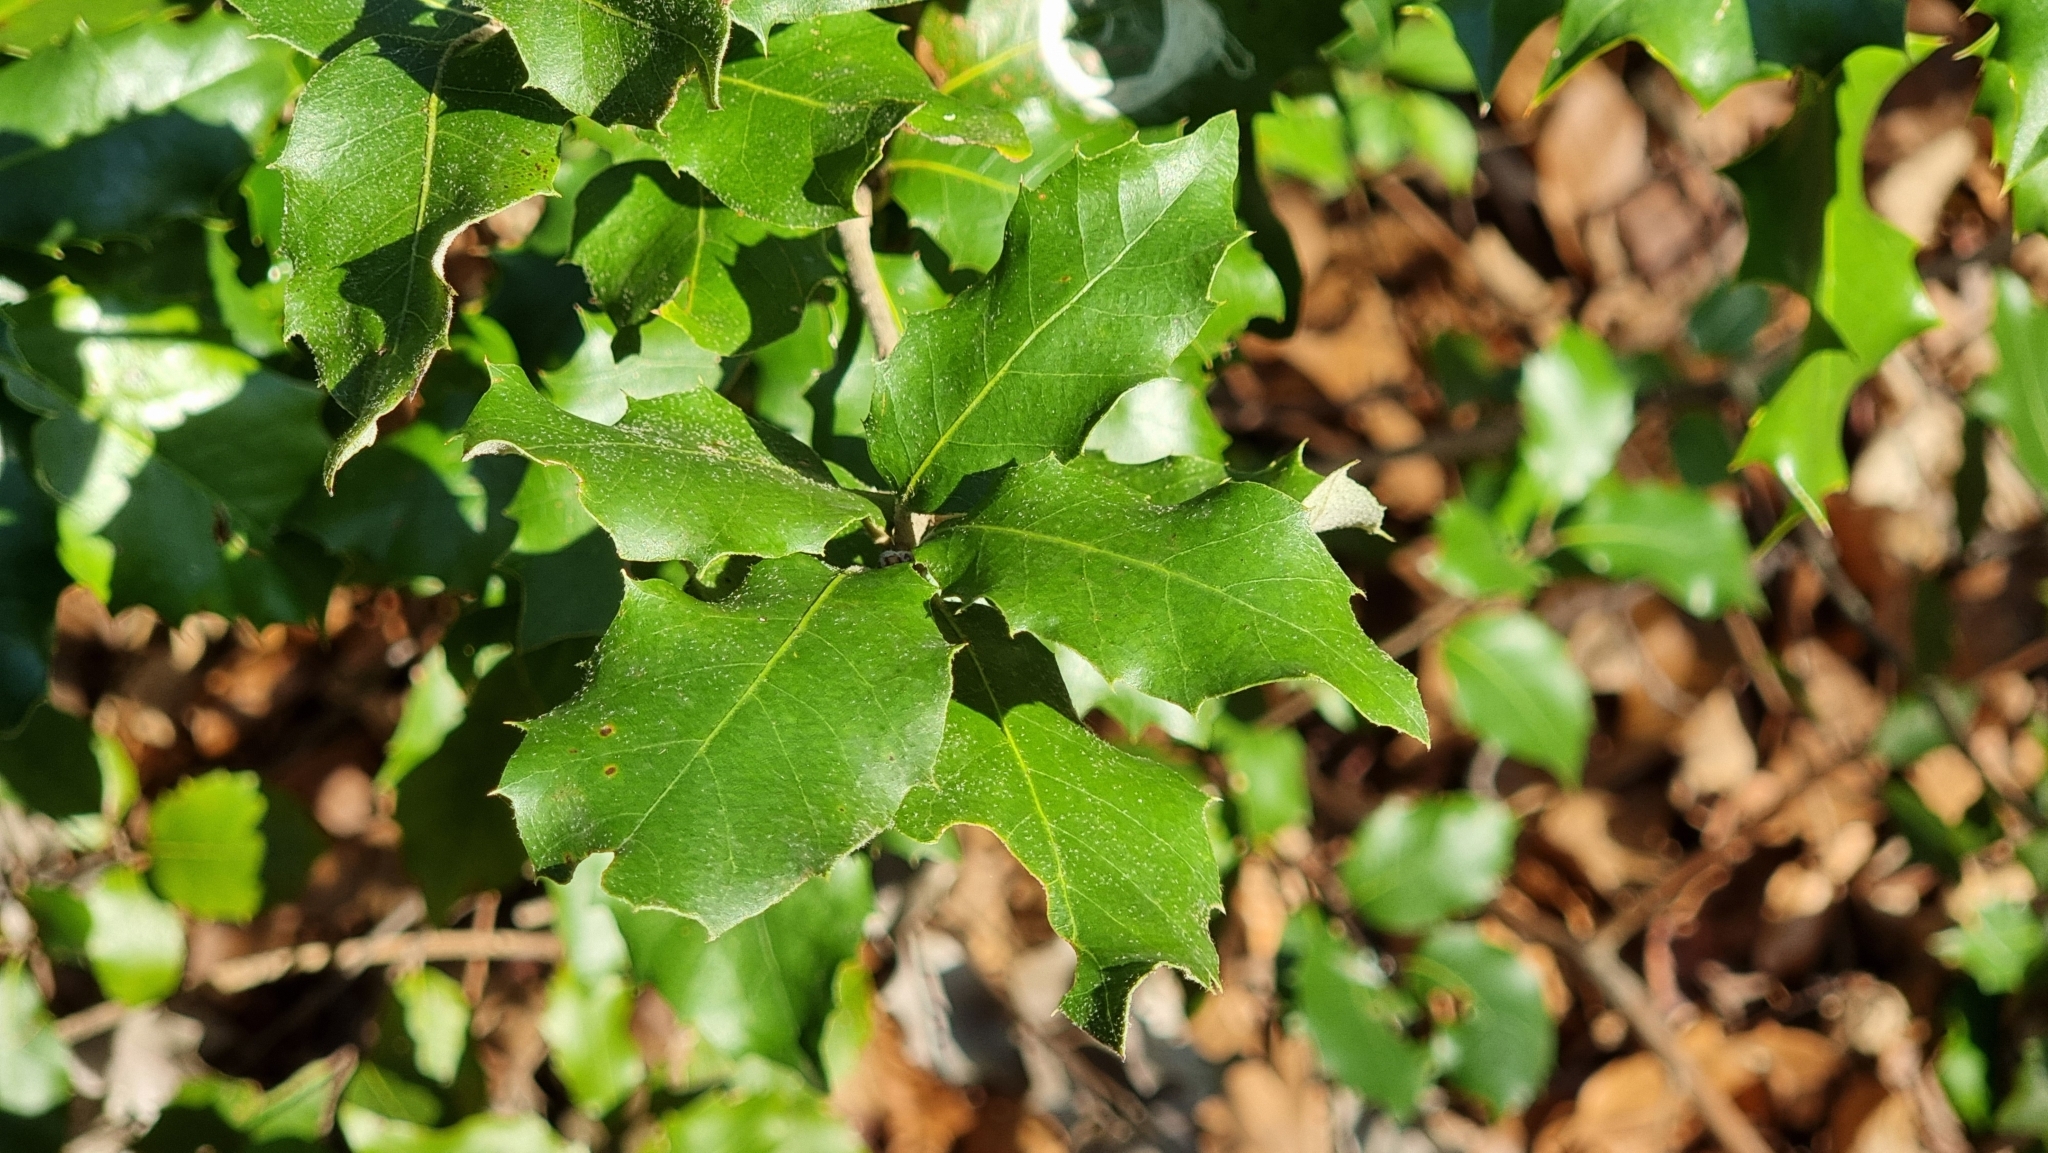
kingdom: Plantae
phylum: Tracheophyta
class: Magnoliopsida
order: Aquifoliales
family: Aquifoliaceae
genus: Ilex
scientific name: Ilex aquifolium
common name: English holly
